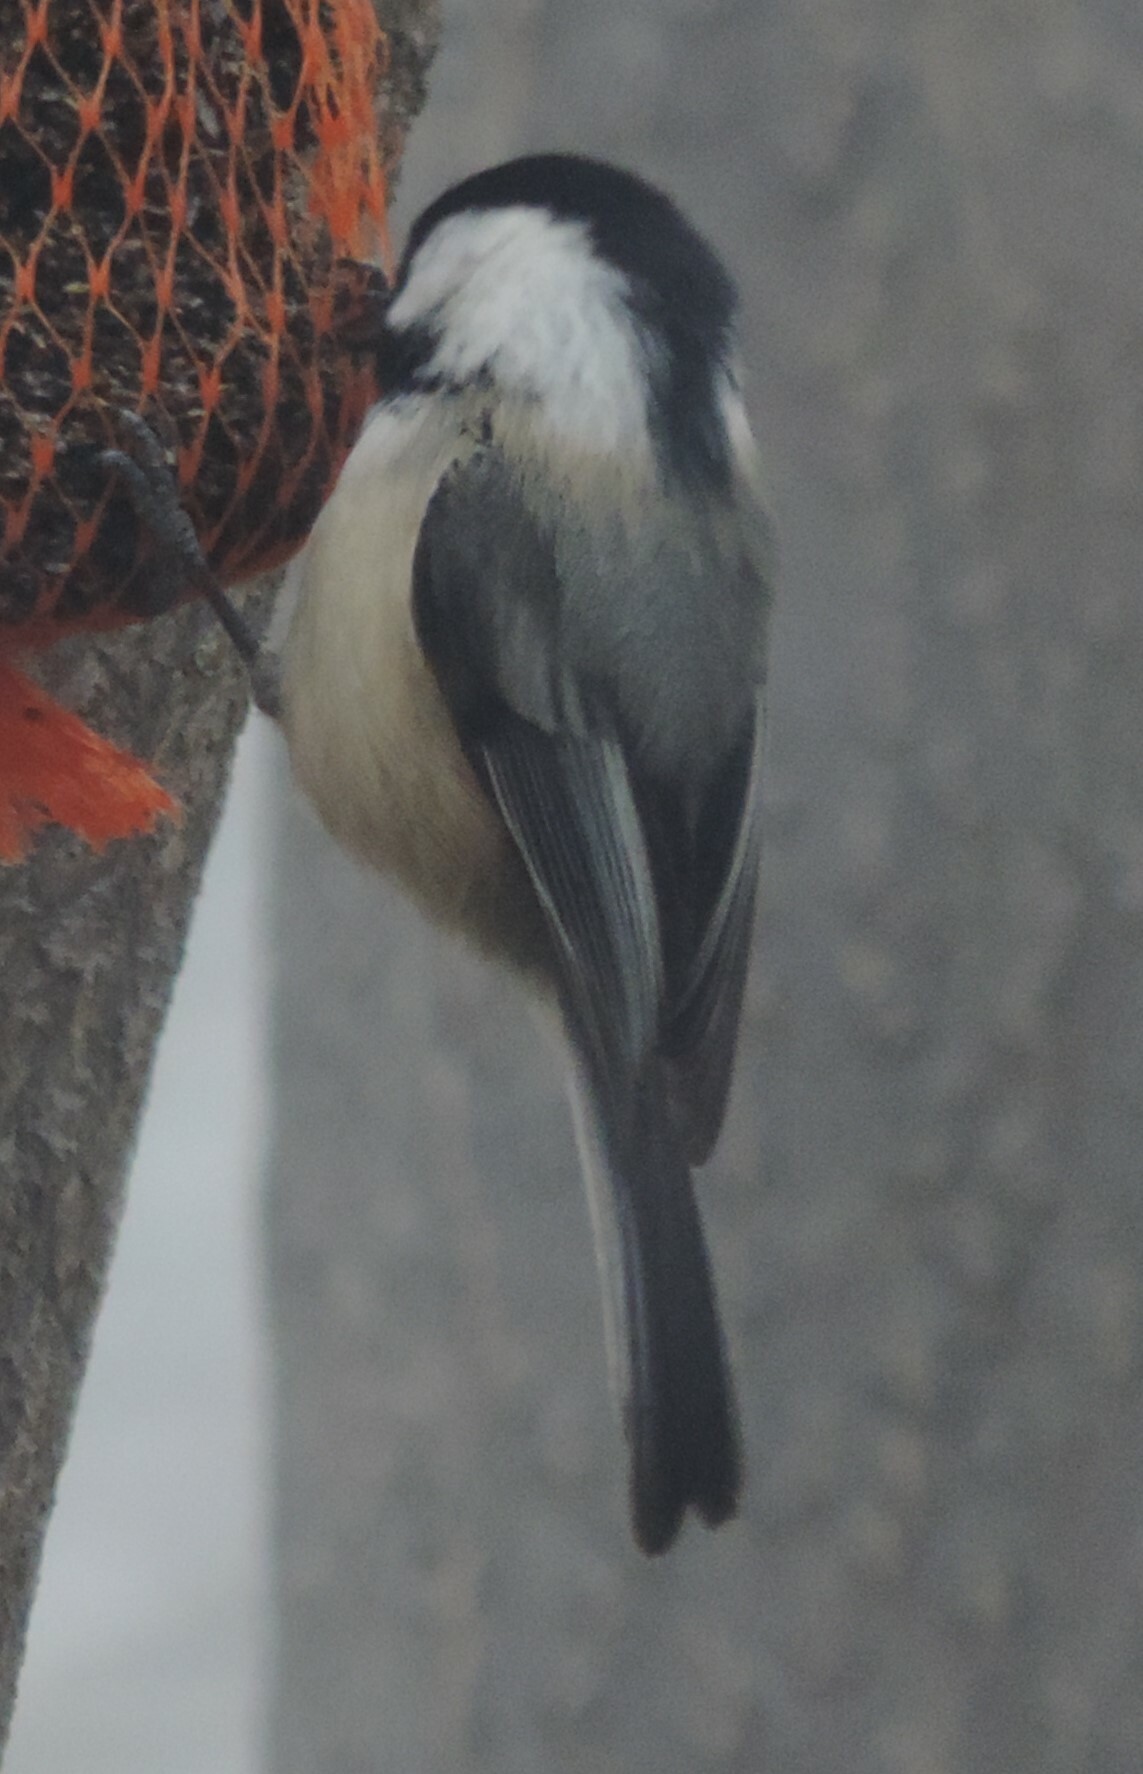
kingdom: Animalia
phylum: Chordata
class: Aves
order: Passeriformes
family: Paridae
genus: Poecile
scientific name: Poecile atricapillus
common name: Black-capped chickadee
